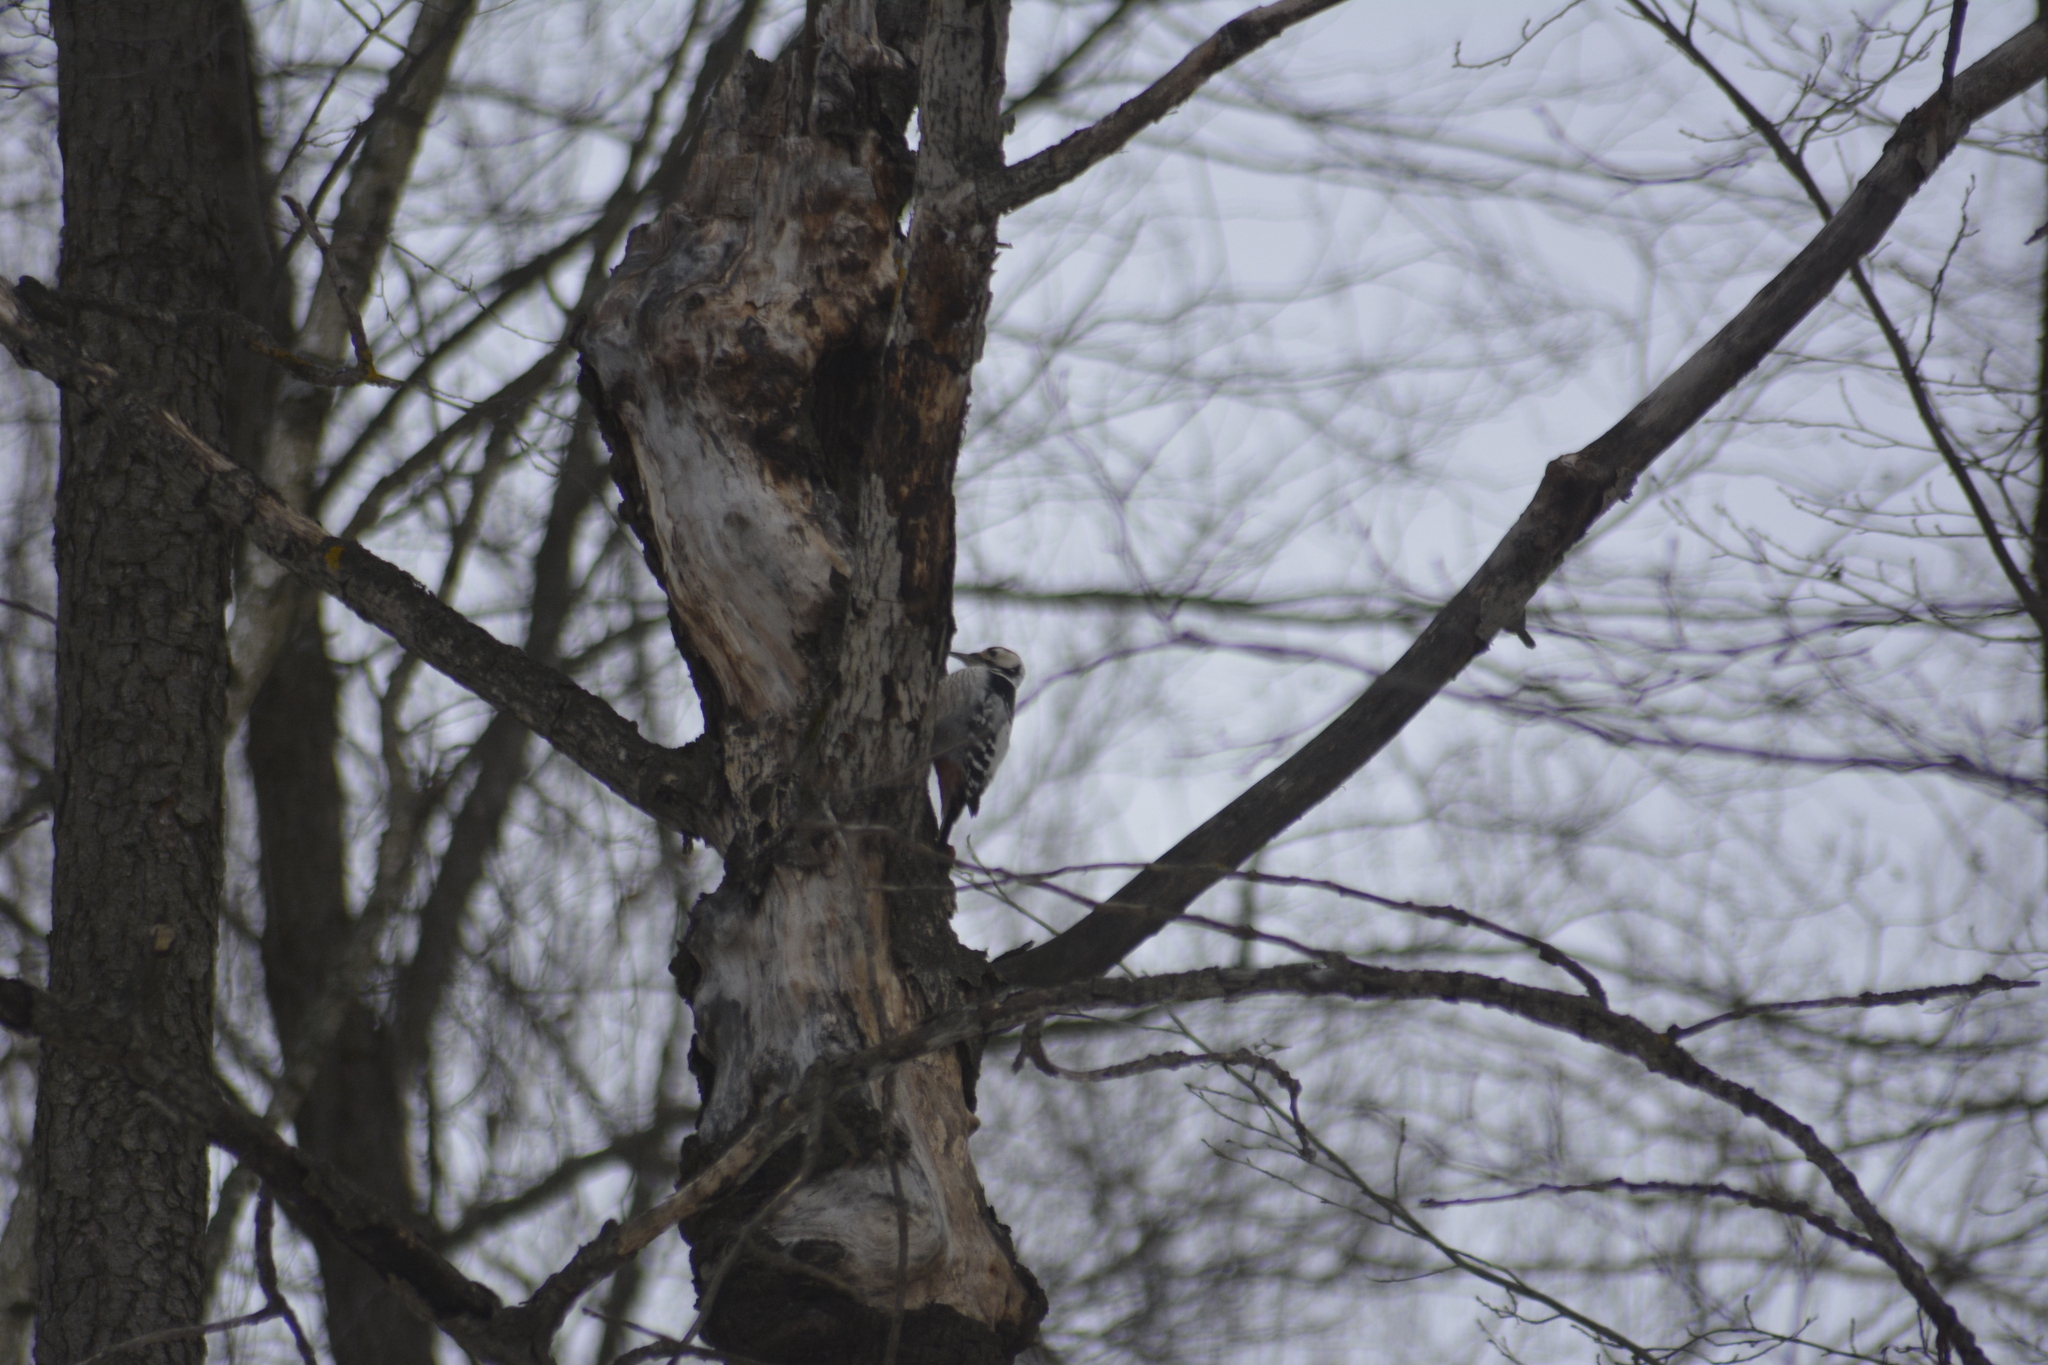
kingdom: Animalia
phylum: Chordata
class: Aves
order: Piciformes
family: Picidae
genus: Dendrocopos
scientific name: Dendrocopos leucotos
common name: White-backed woodpecker
